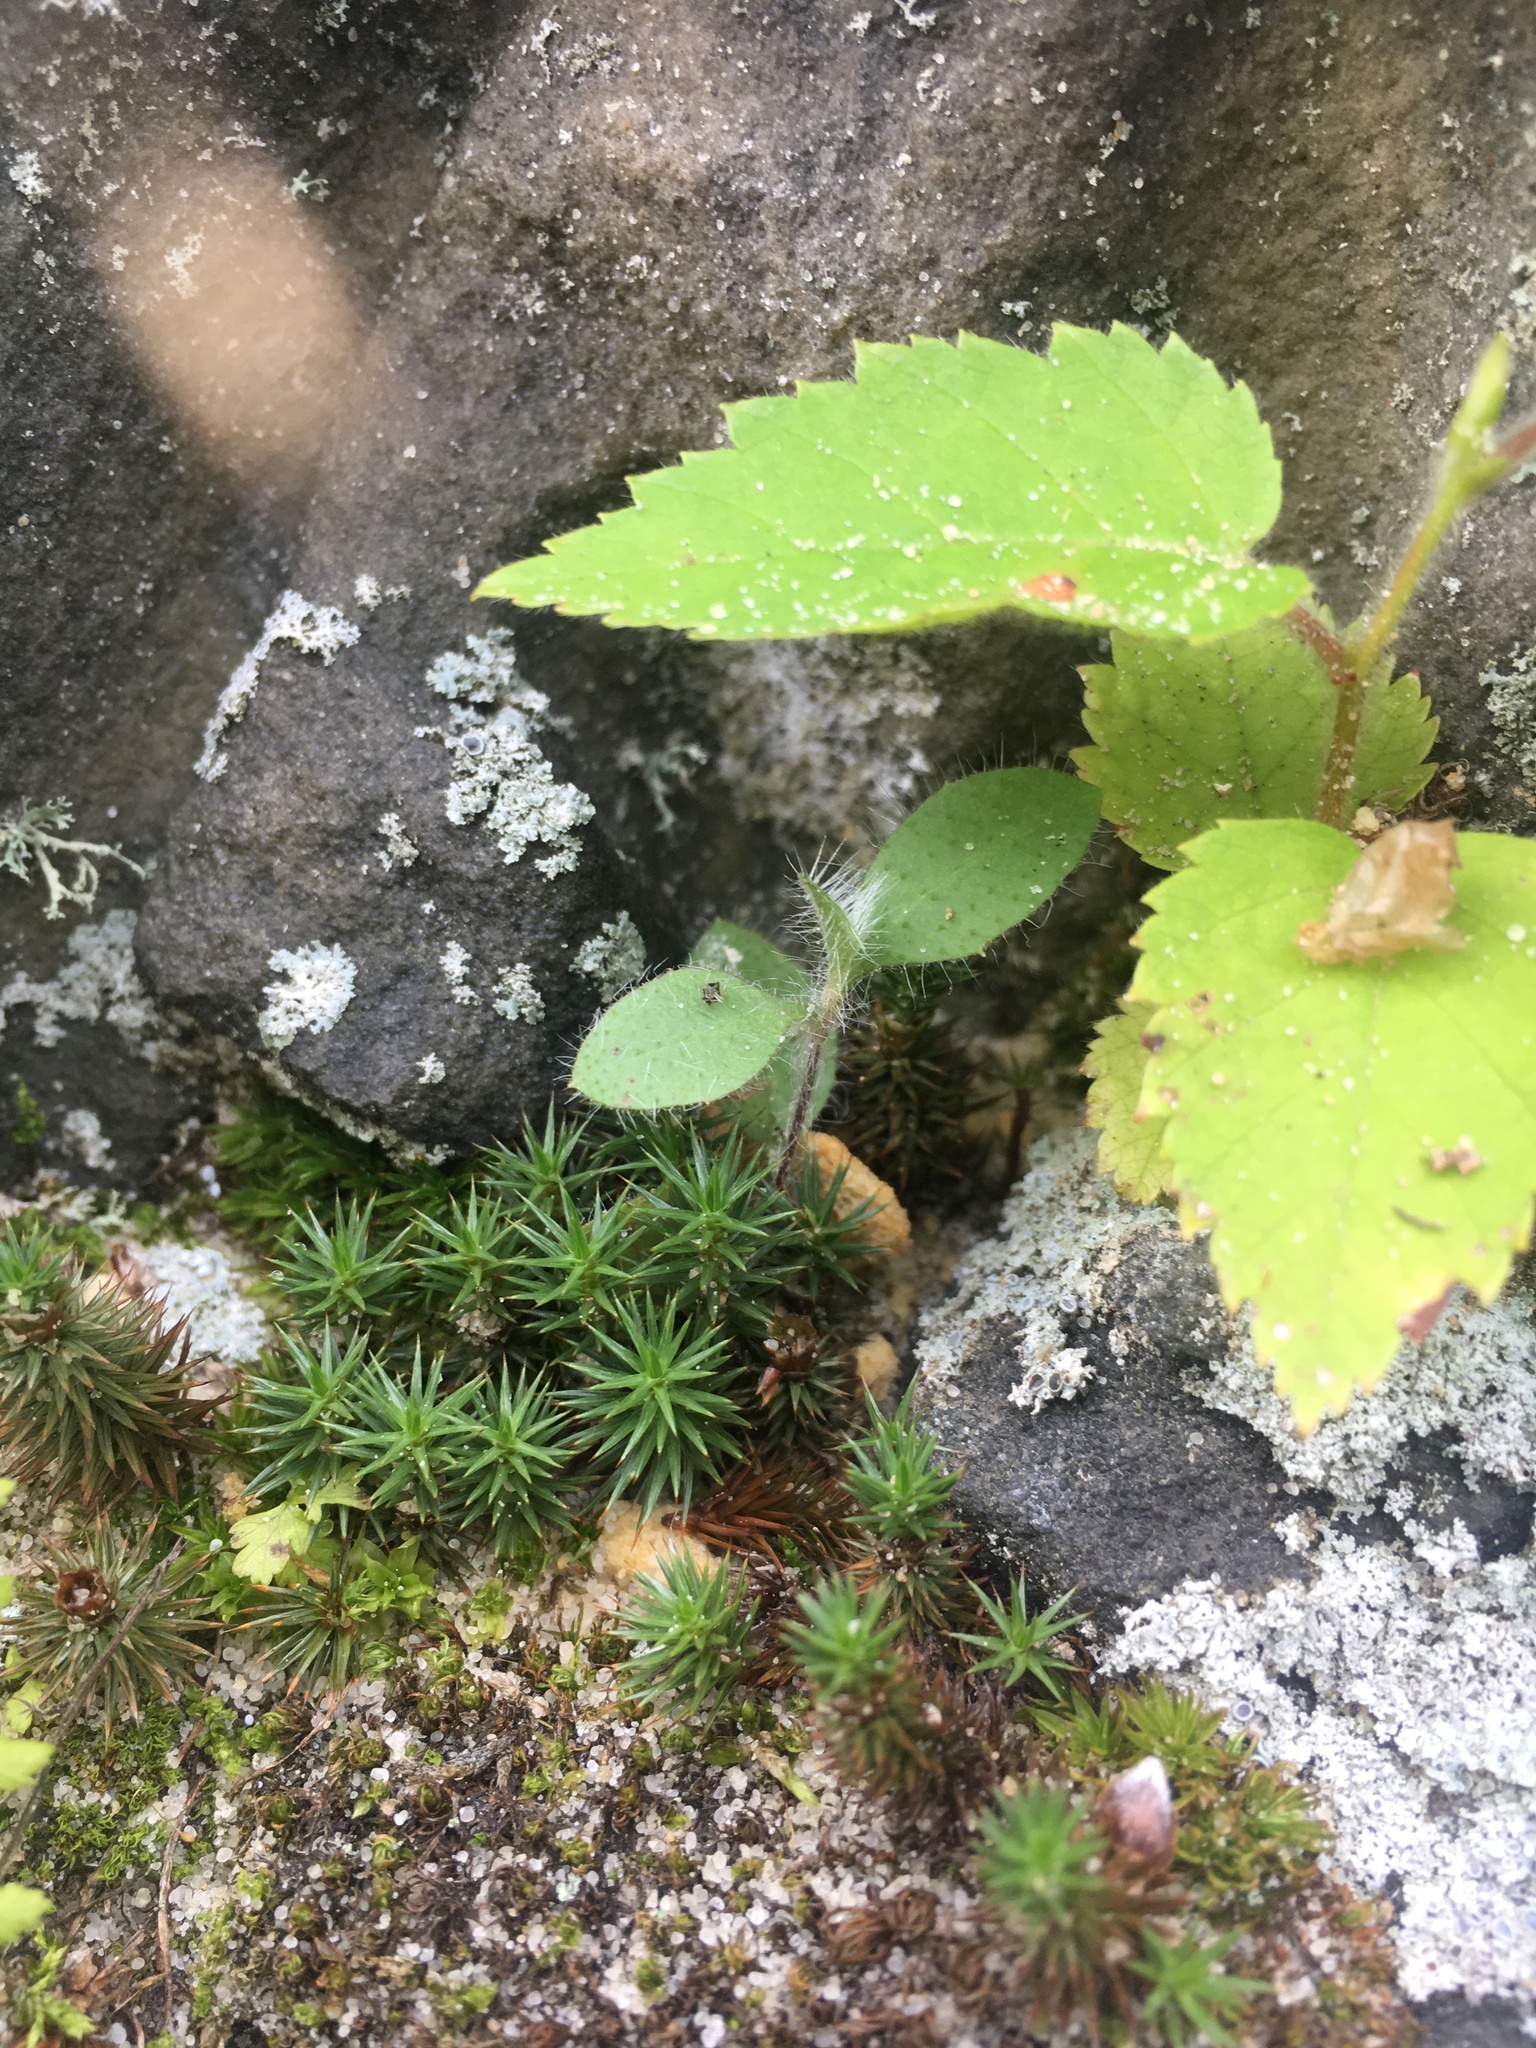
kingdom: Plantae
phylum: Tracheophyta
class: Magnoliopsida
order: Brassicales
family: Brassicaceae
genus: Tomostima
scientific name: Tomostima reptans
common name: Carolina draba
